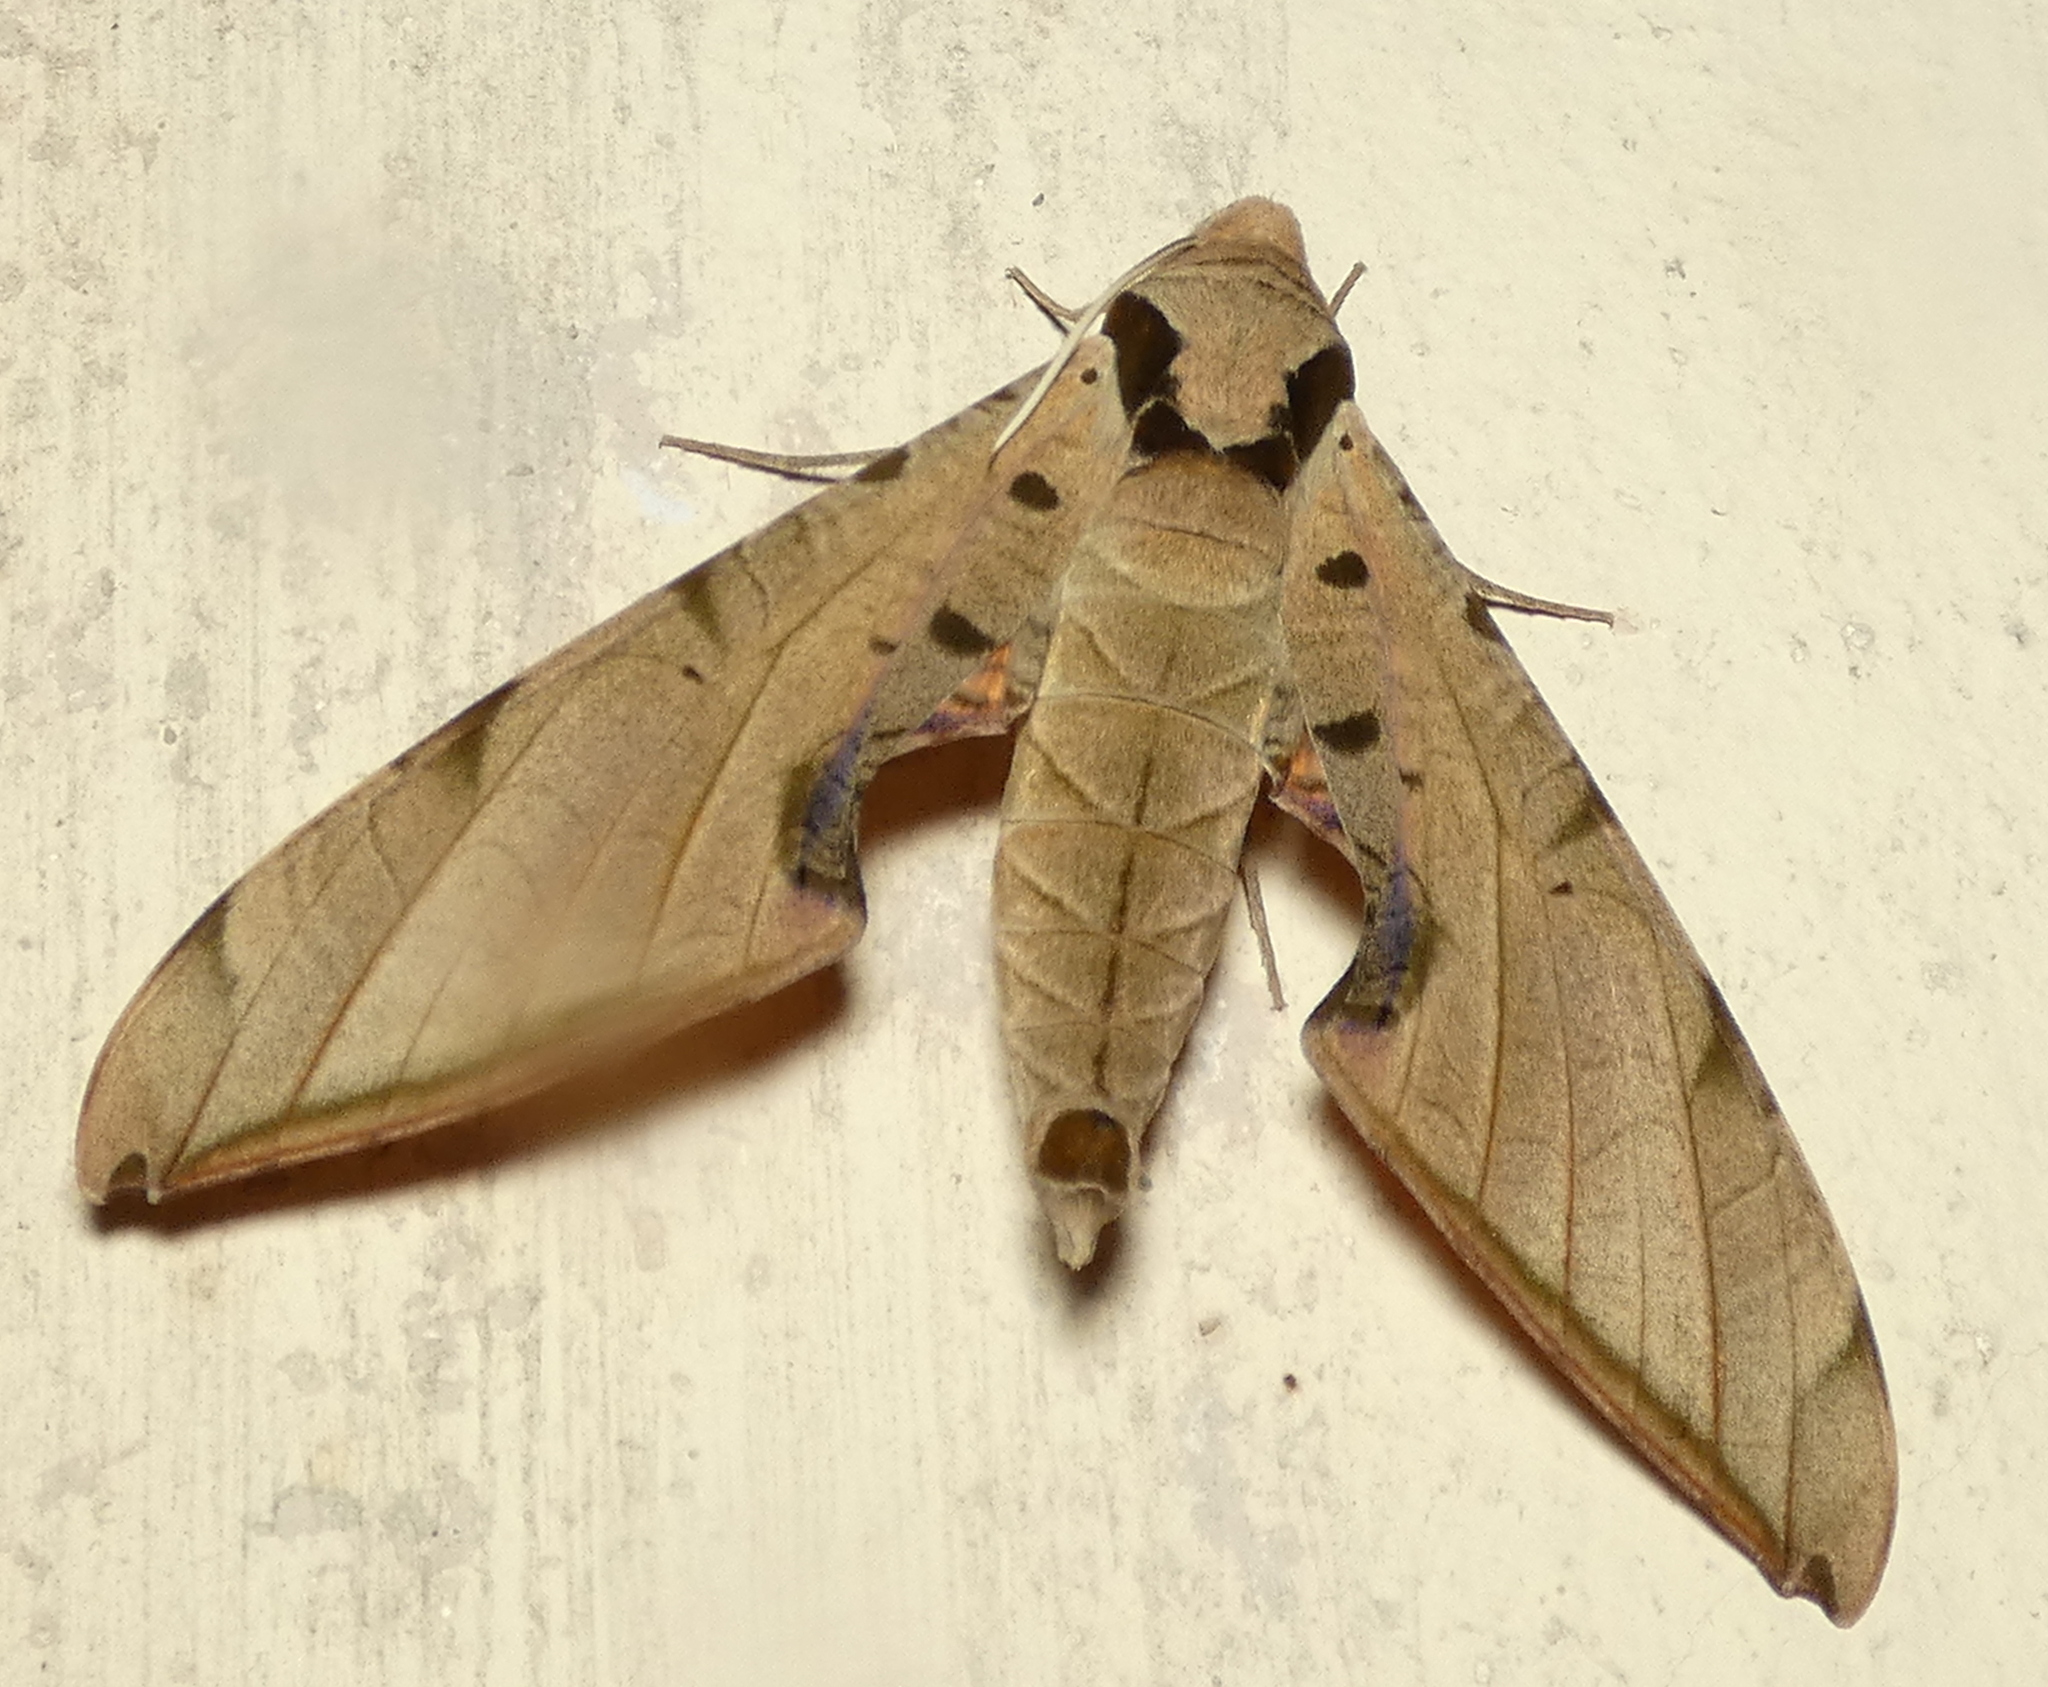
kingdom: Animalia
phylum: Arthropoda
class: Insecta
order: Lepidoptera
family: Sphingidae
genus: Protambulyx
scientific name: Protambulyx strigilis
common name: Streaked sphinx
